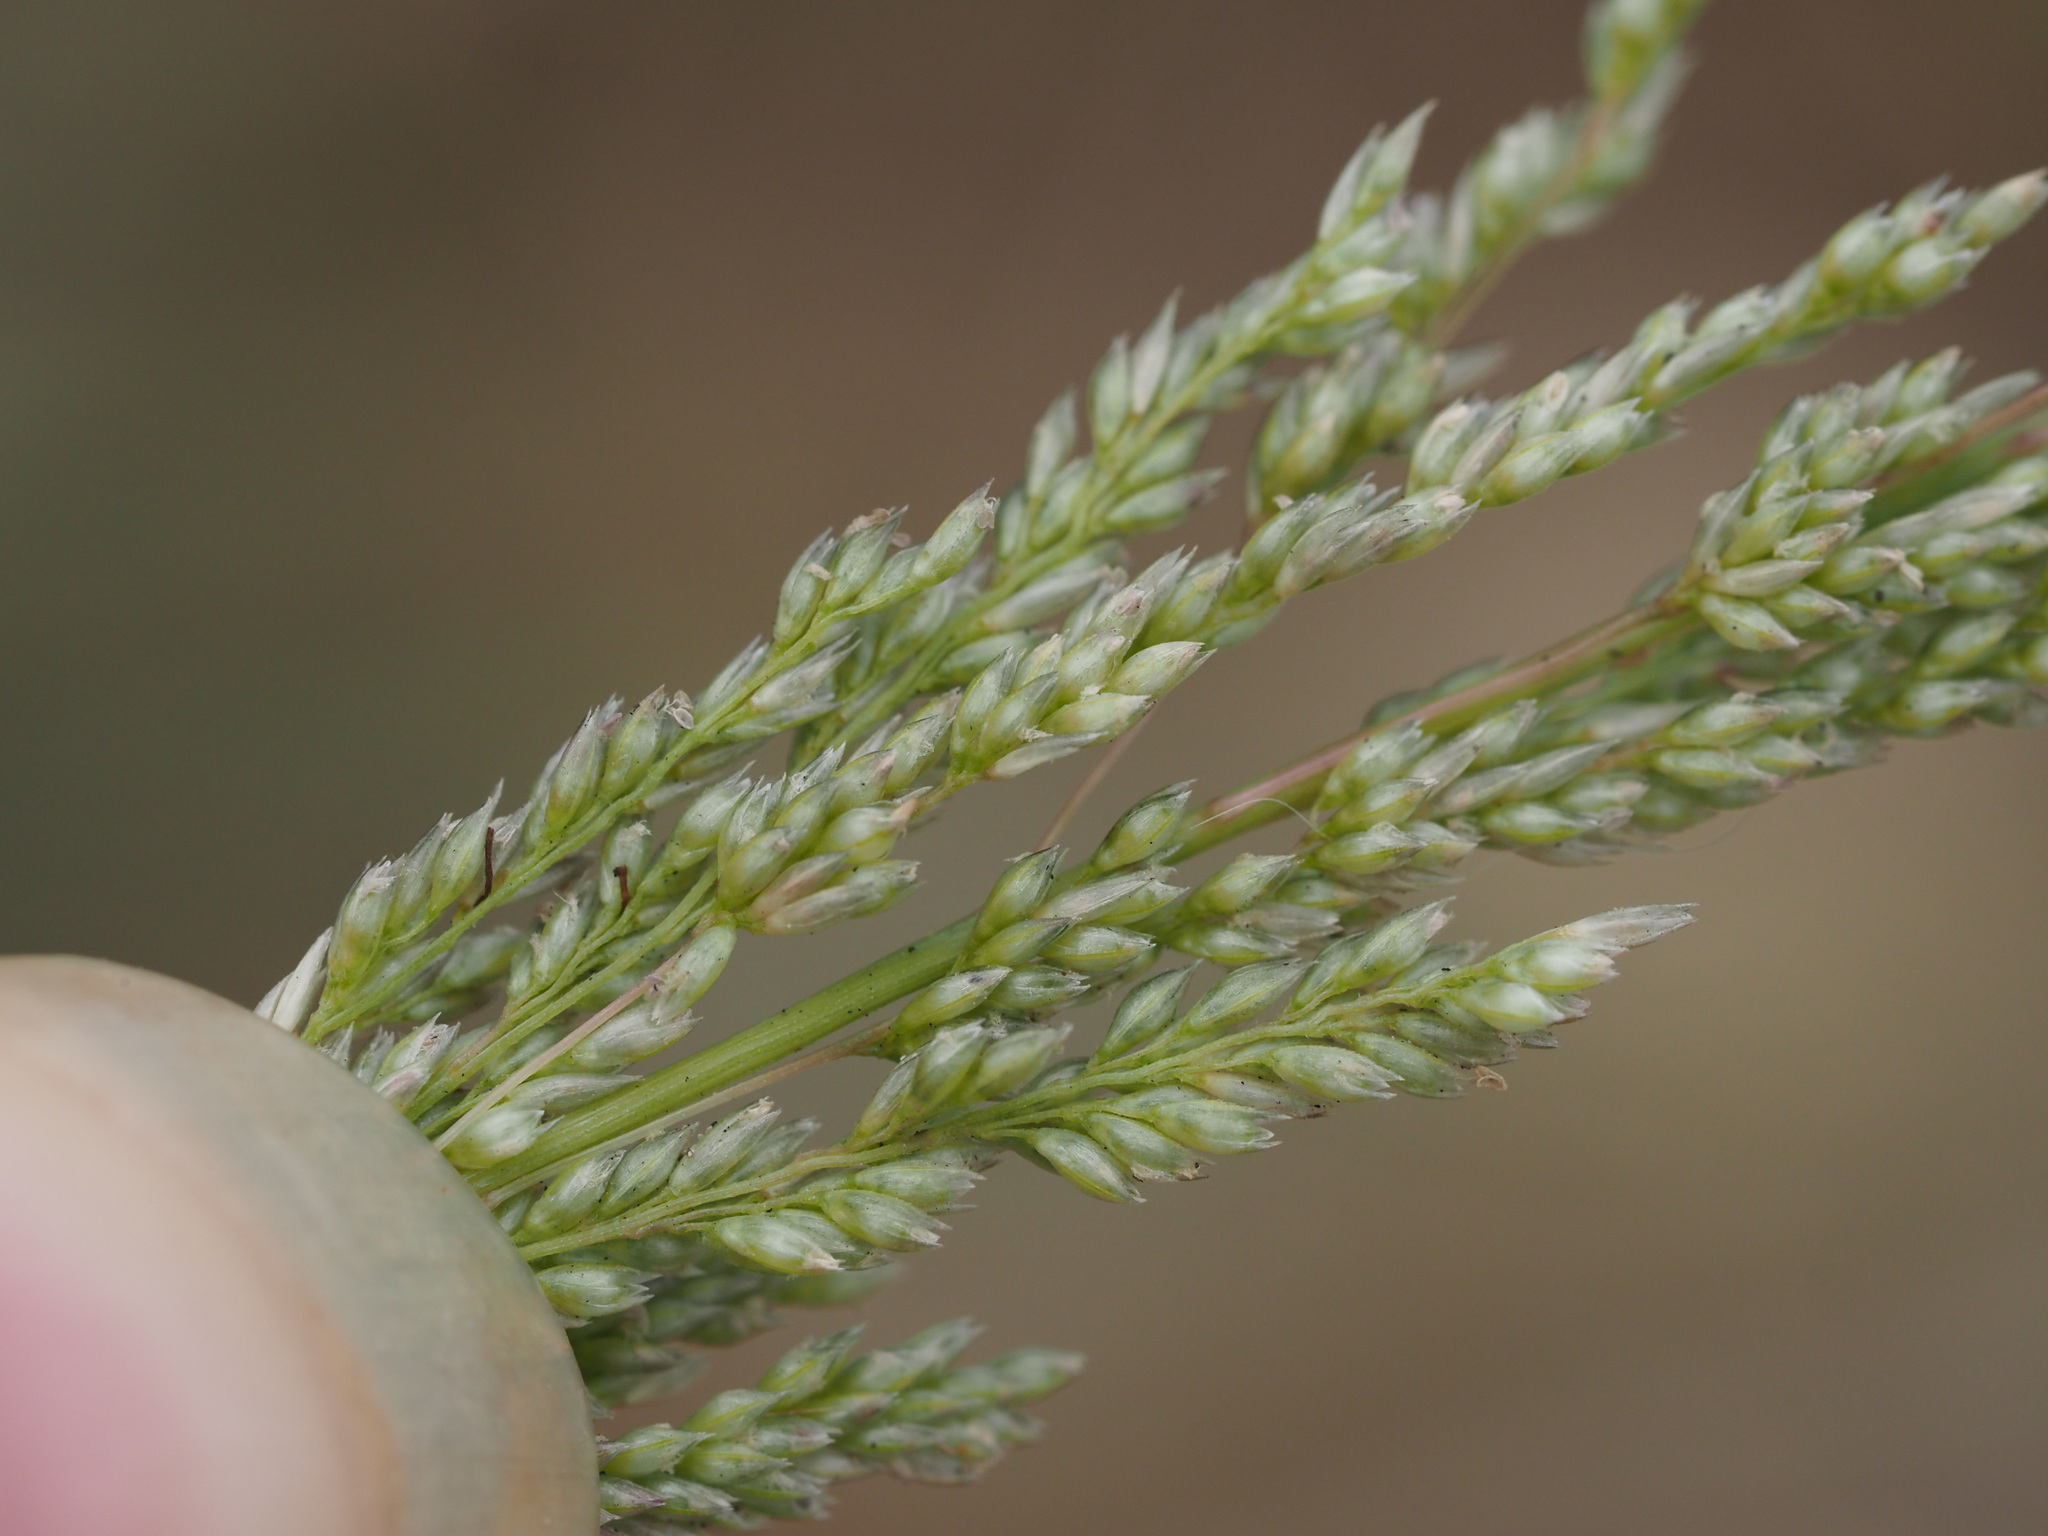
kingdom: Plantae
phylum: Tracheophyta
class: Liliopsida
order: Poales
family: Poaceae
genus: Sporobolus
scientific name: Sporobolus domingensis
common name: Coral dropseed
